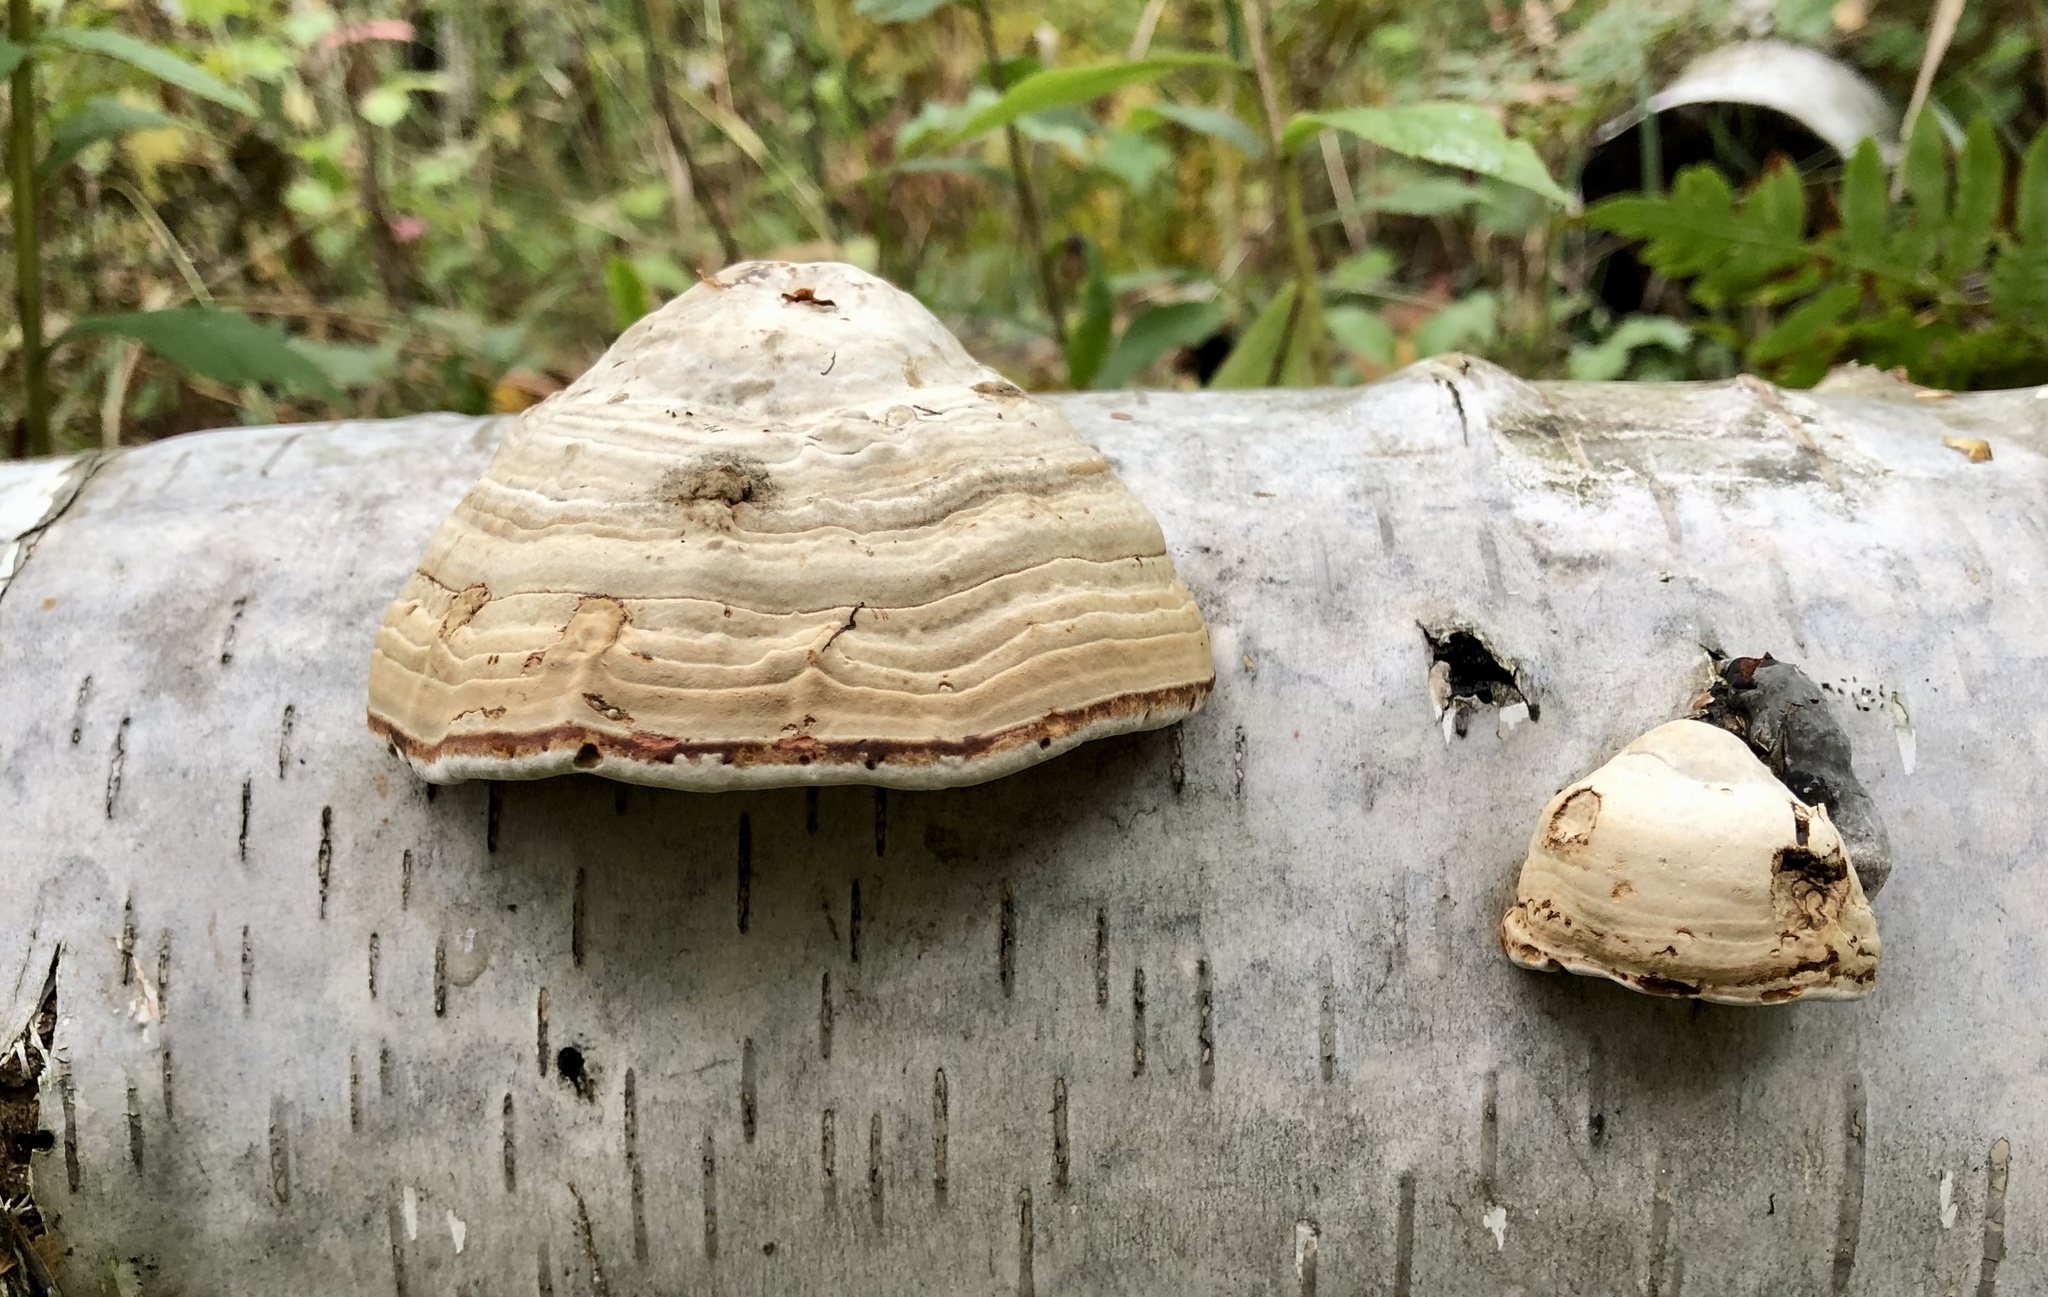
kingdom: Fungi
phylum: Basidiomycota
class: Agaricomycetes
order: Polyporales
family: Polyporaceae
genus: Fomes
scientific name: Fomes fomentarius
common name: Hoof fungus
